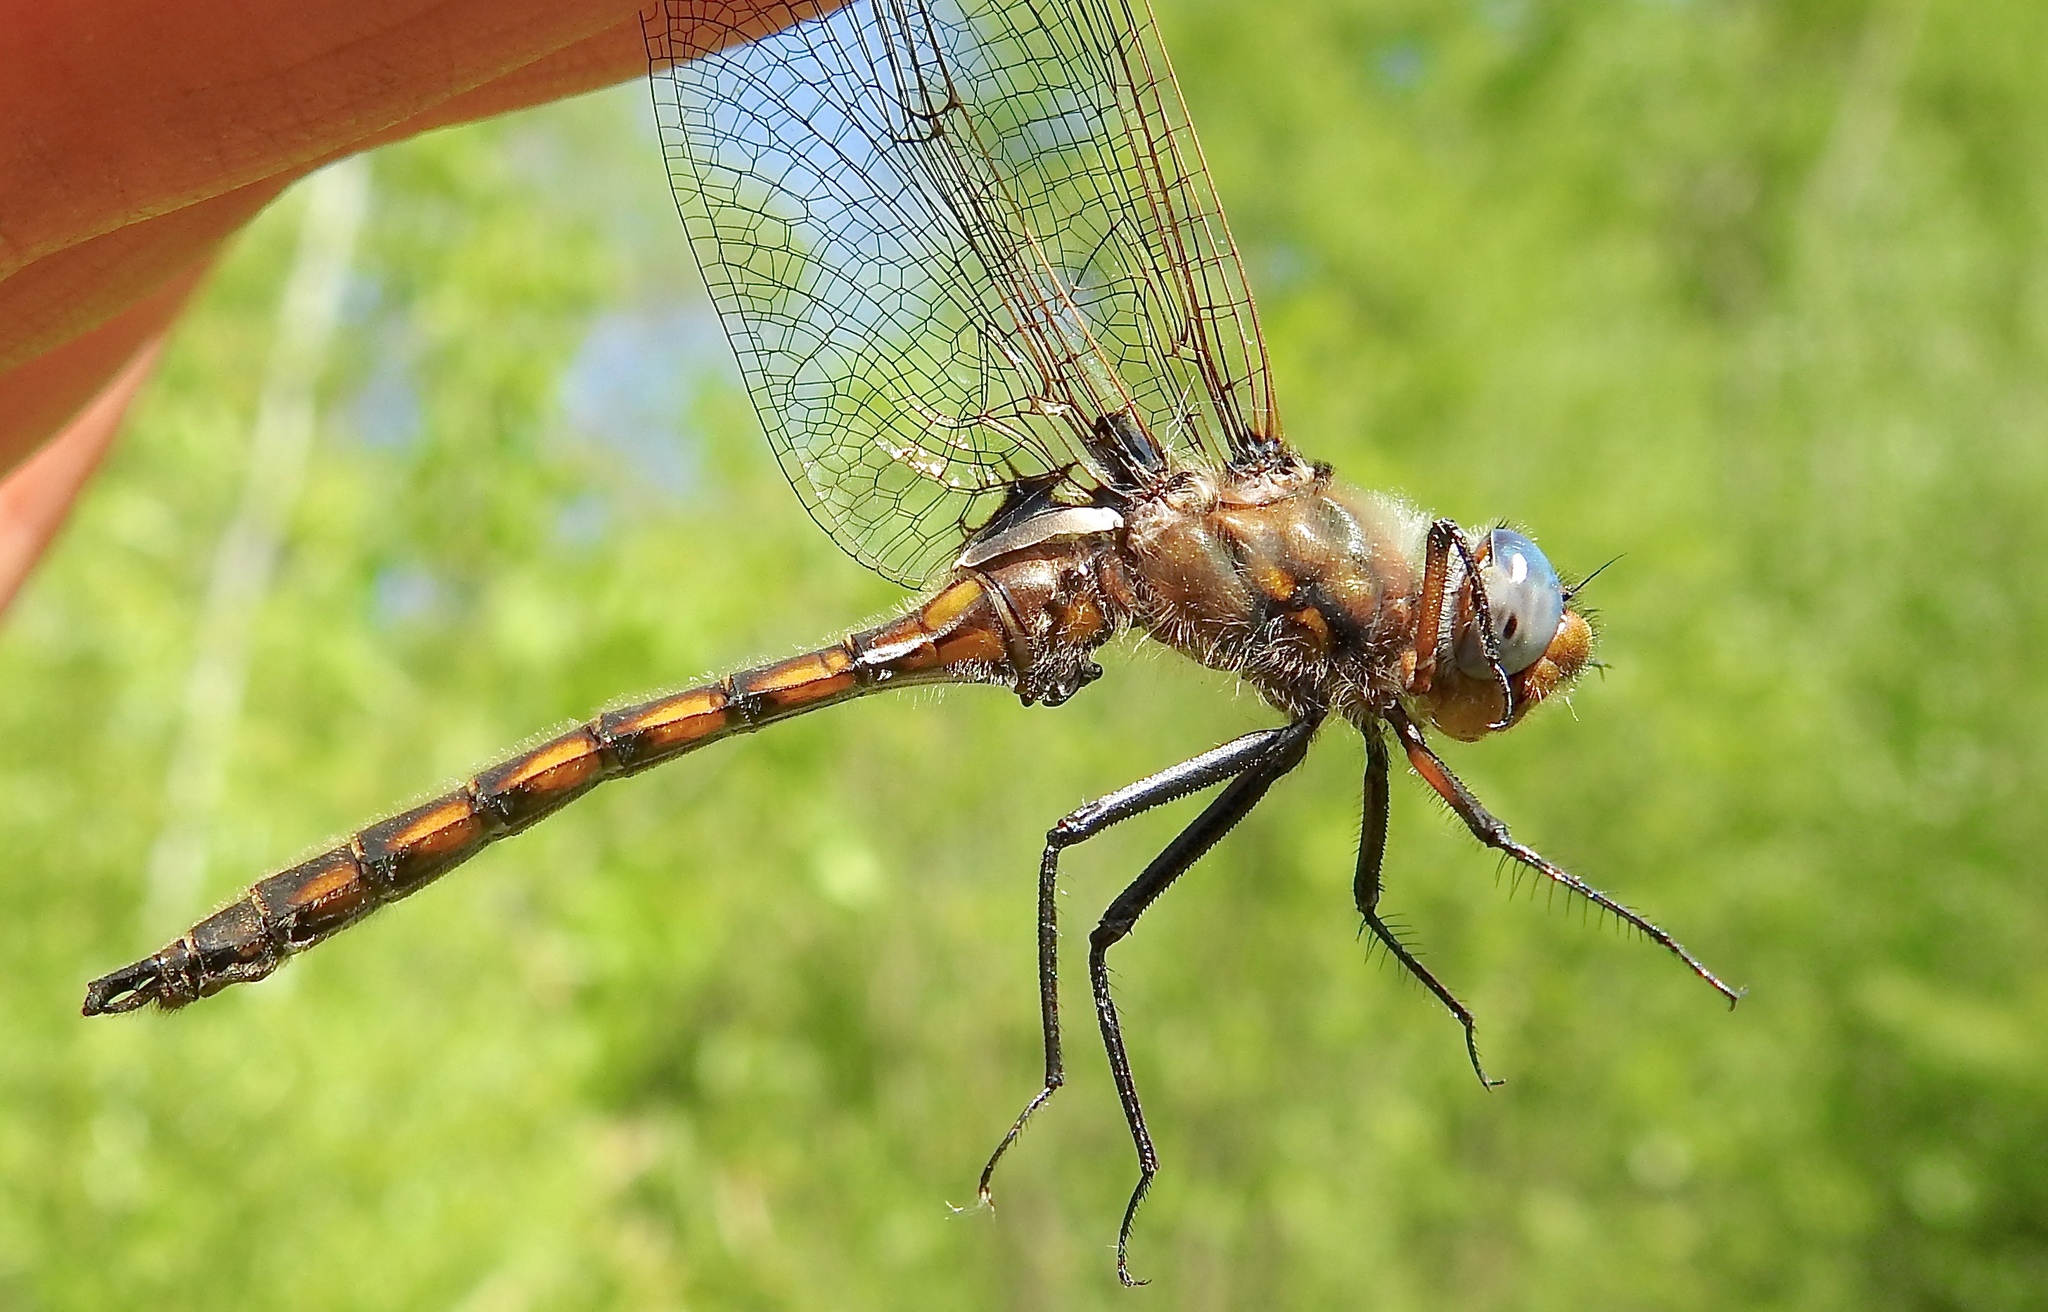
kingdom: Animalia
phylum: Arthropoda
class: Insecta
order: Odonata
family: Corduliidae
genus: Epitheca
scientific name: Epitheca canis
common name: Beaverpond baskettail
